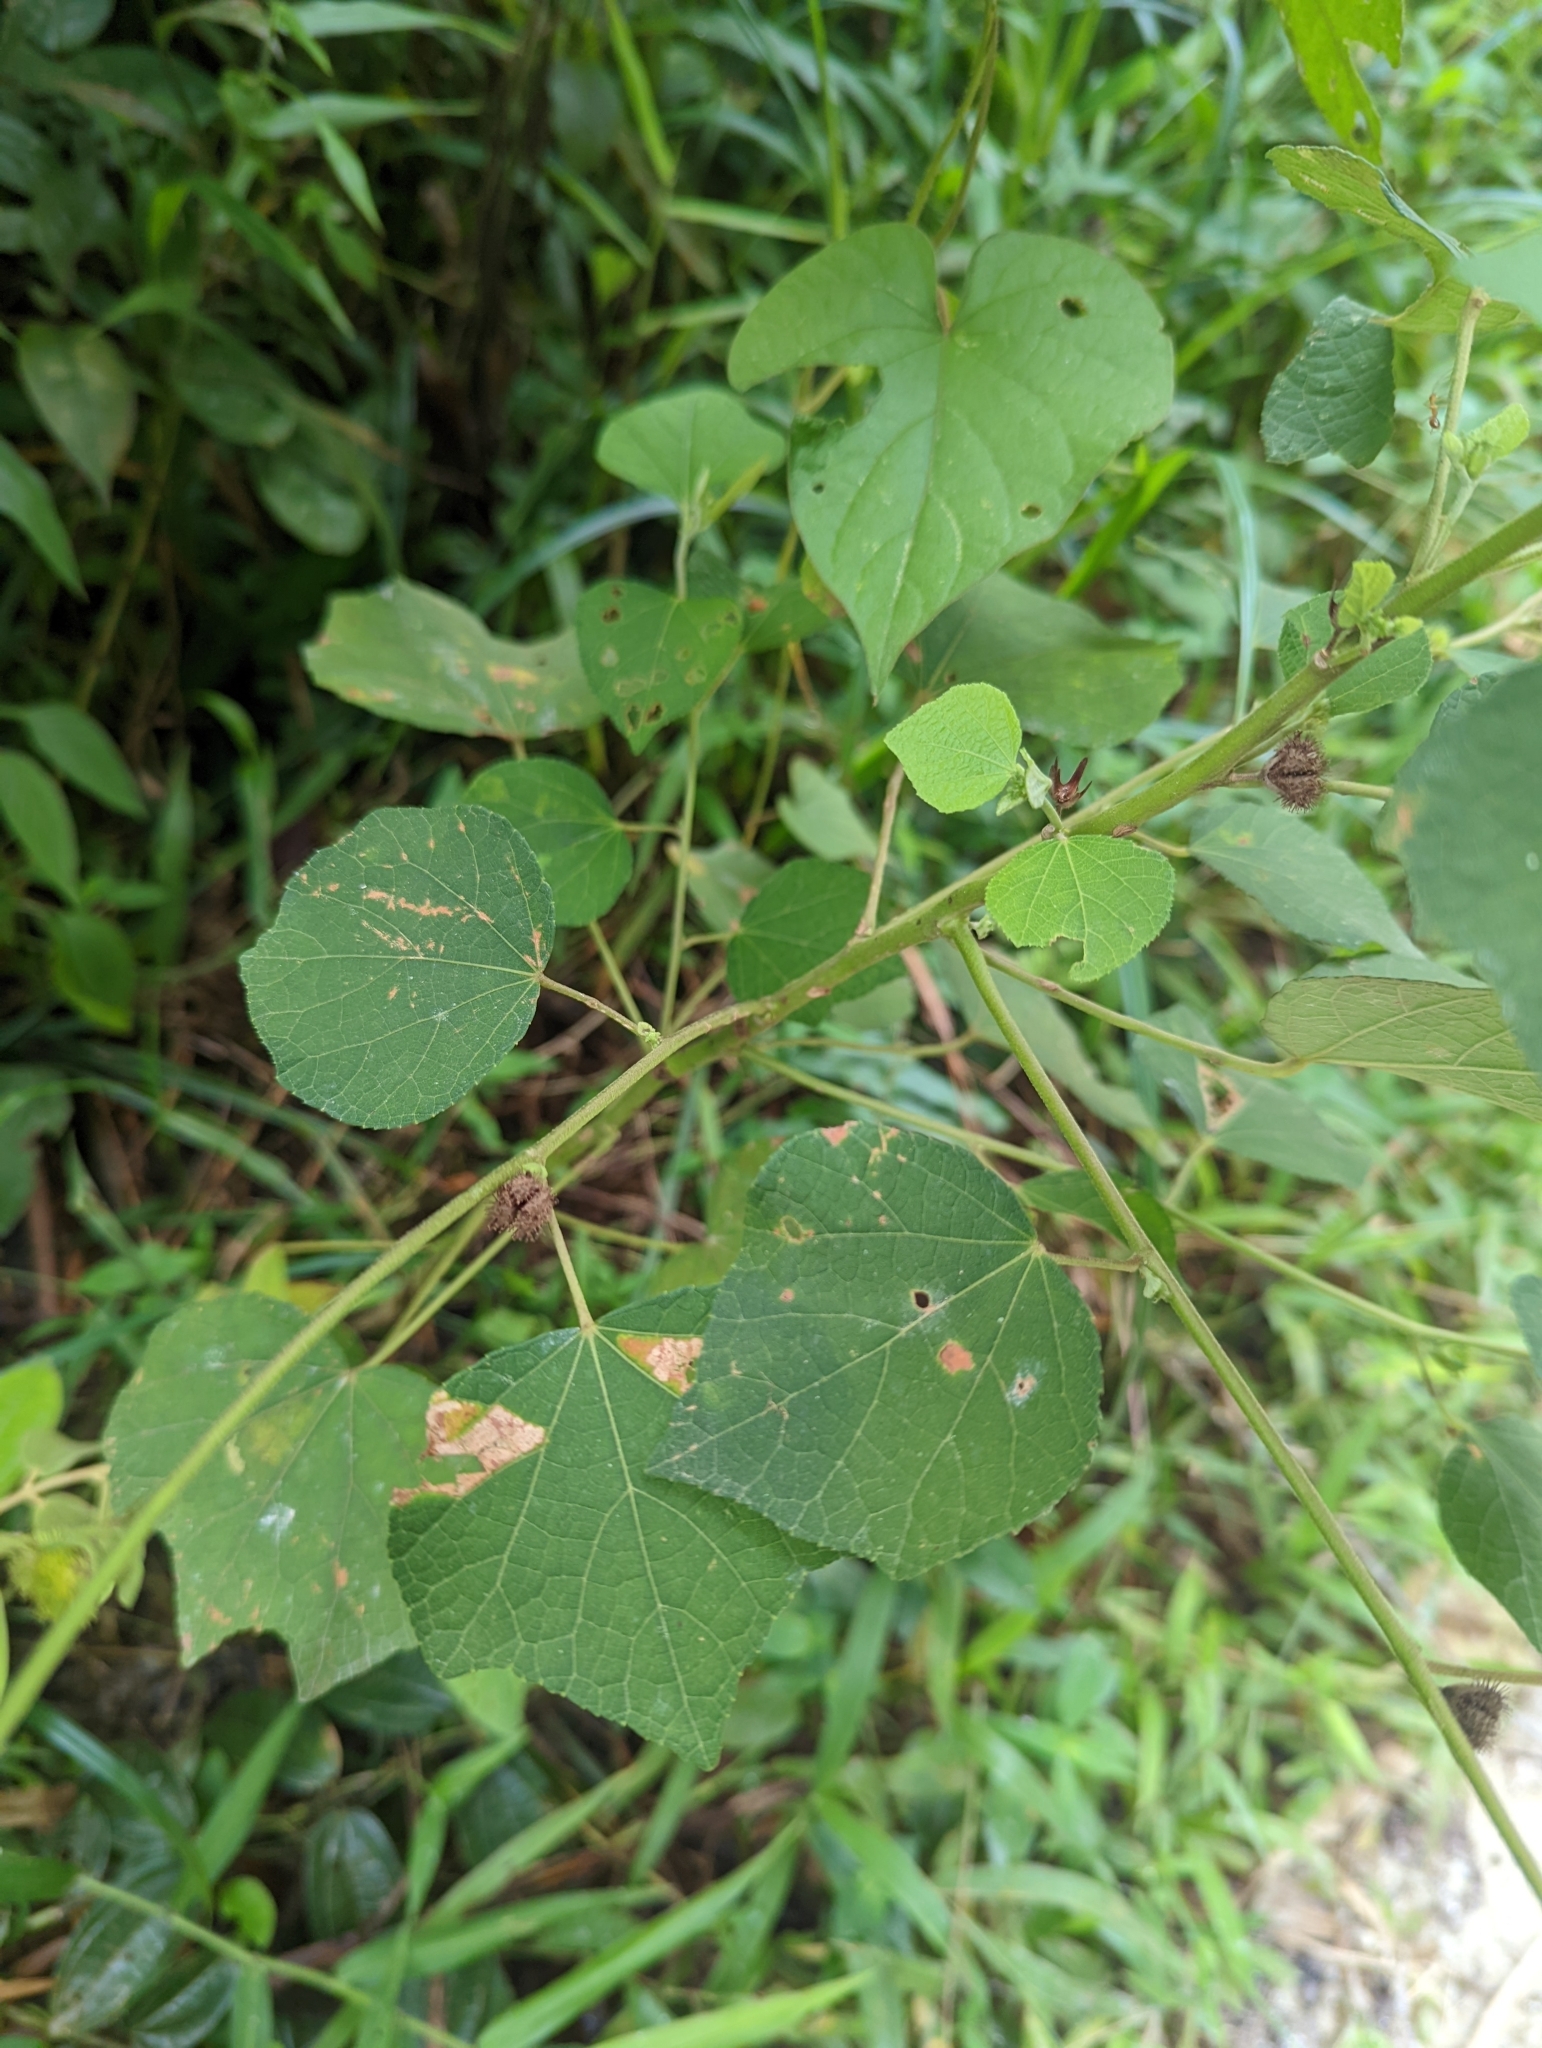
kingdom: Plantae
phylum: Tracheophyta
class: Magnoliopsida
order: Malvales
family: Malvaceae
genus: Urena
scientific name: Urena lobata
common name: Caesarweed
